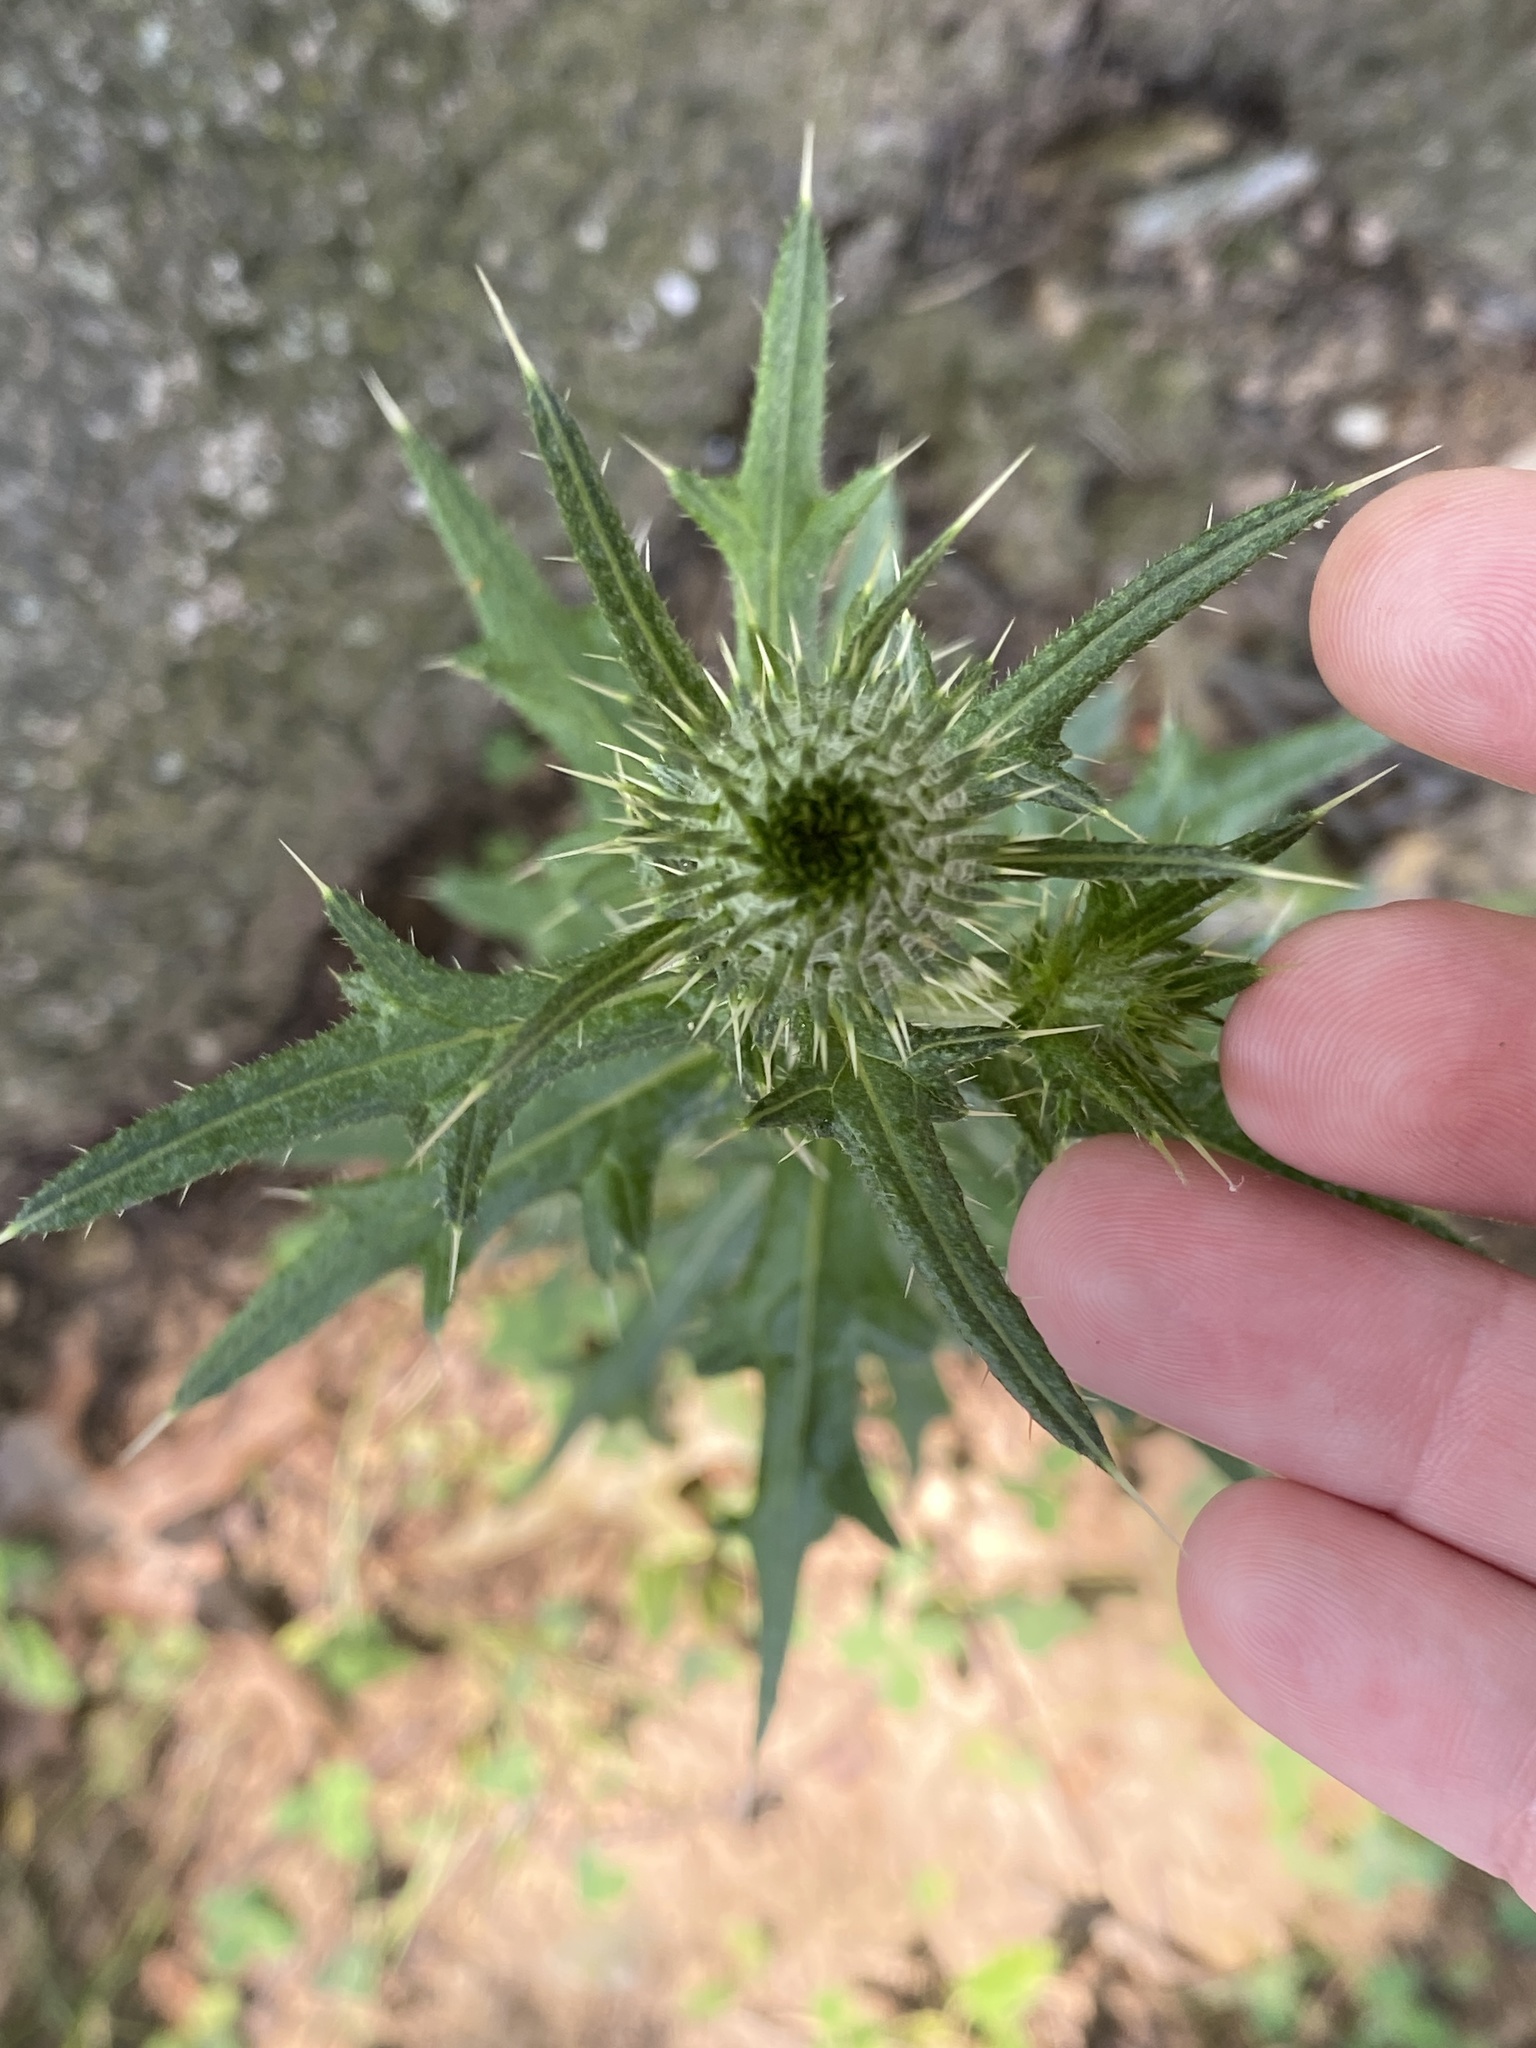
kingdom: Plantae
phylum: Tracheophyta
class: Magnoliopsida
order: Asterales
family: Asteraceae
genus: Cirsium
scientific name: Cirsium vulgare
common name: Bull thistle
